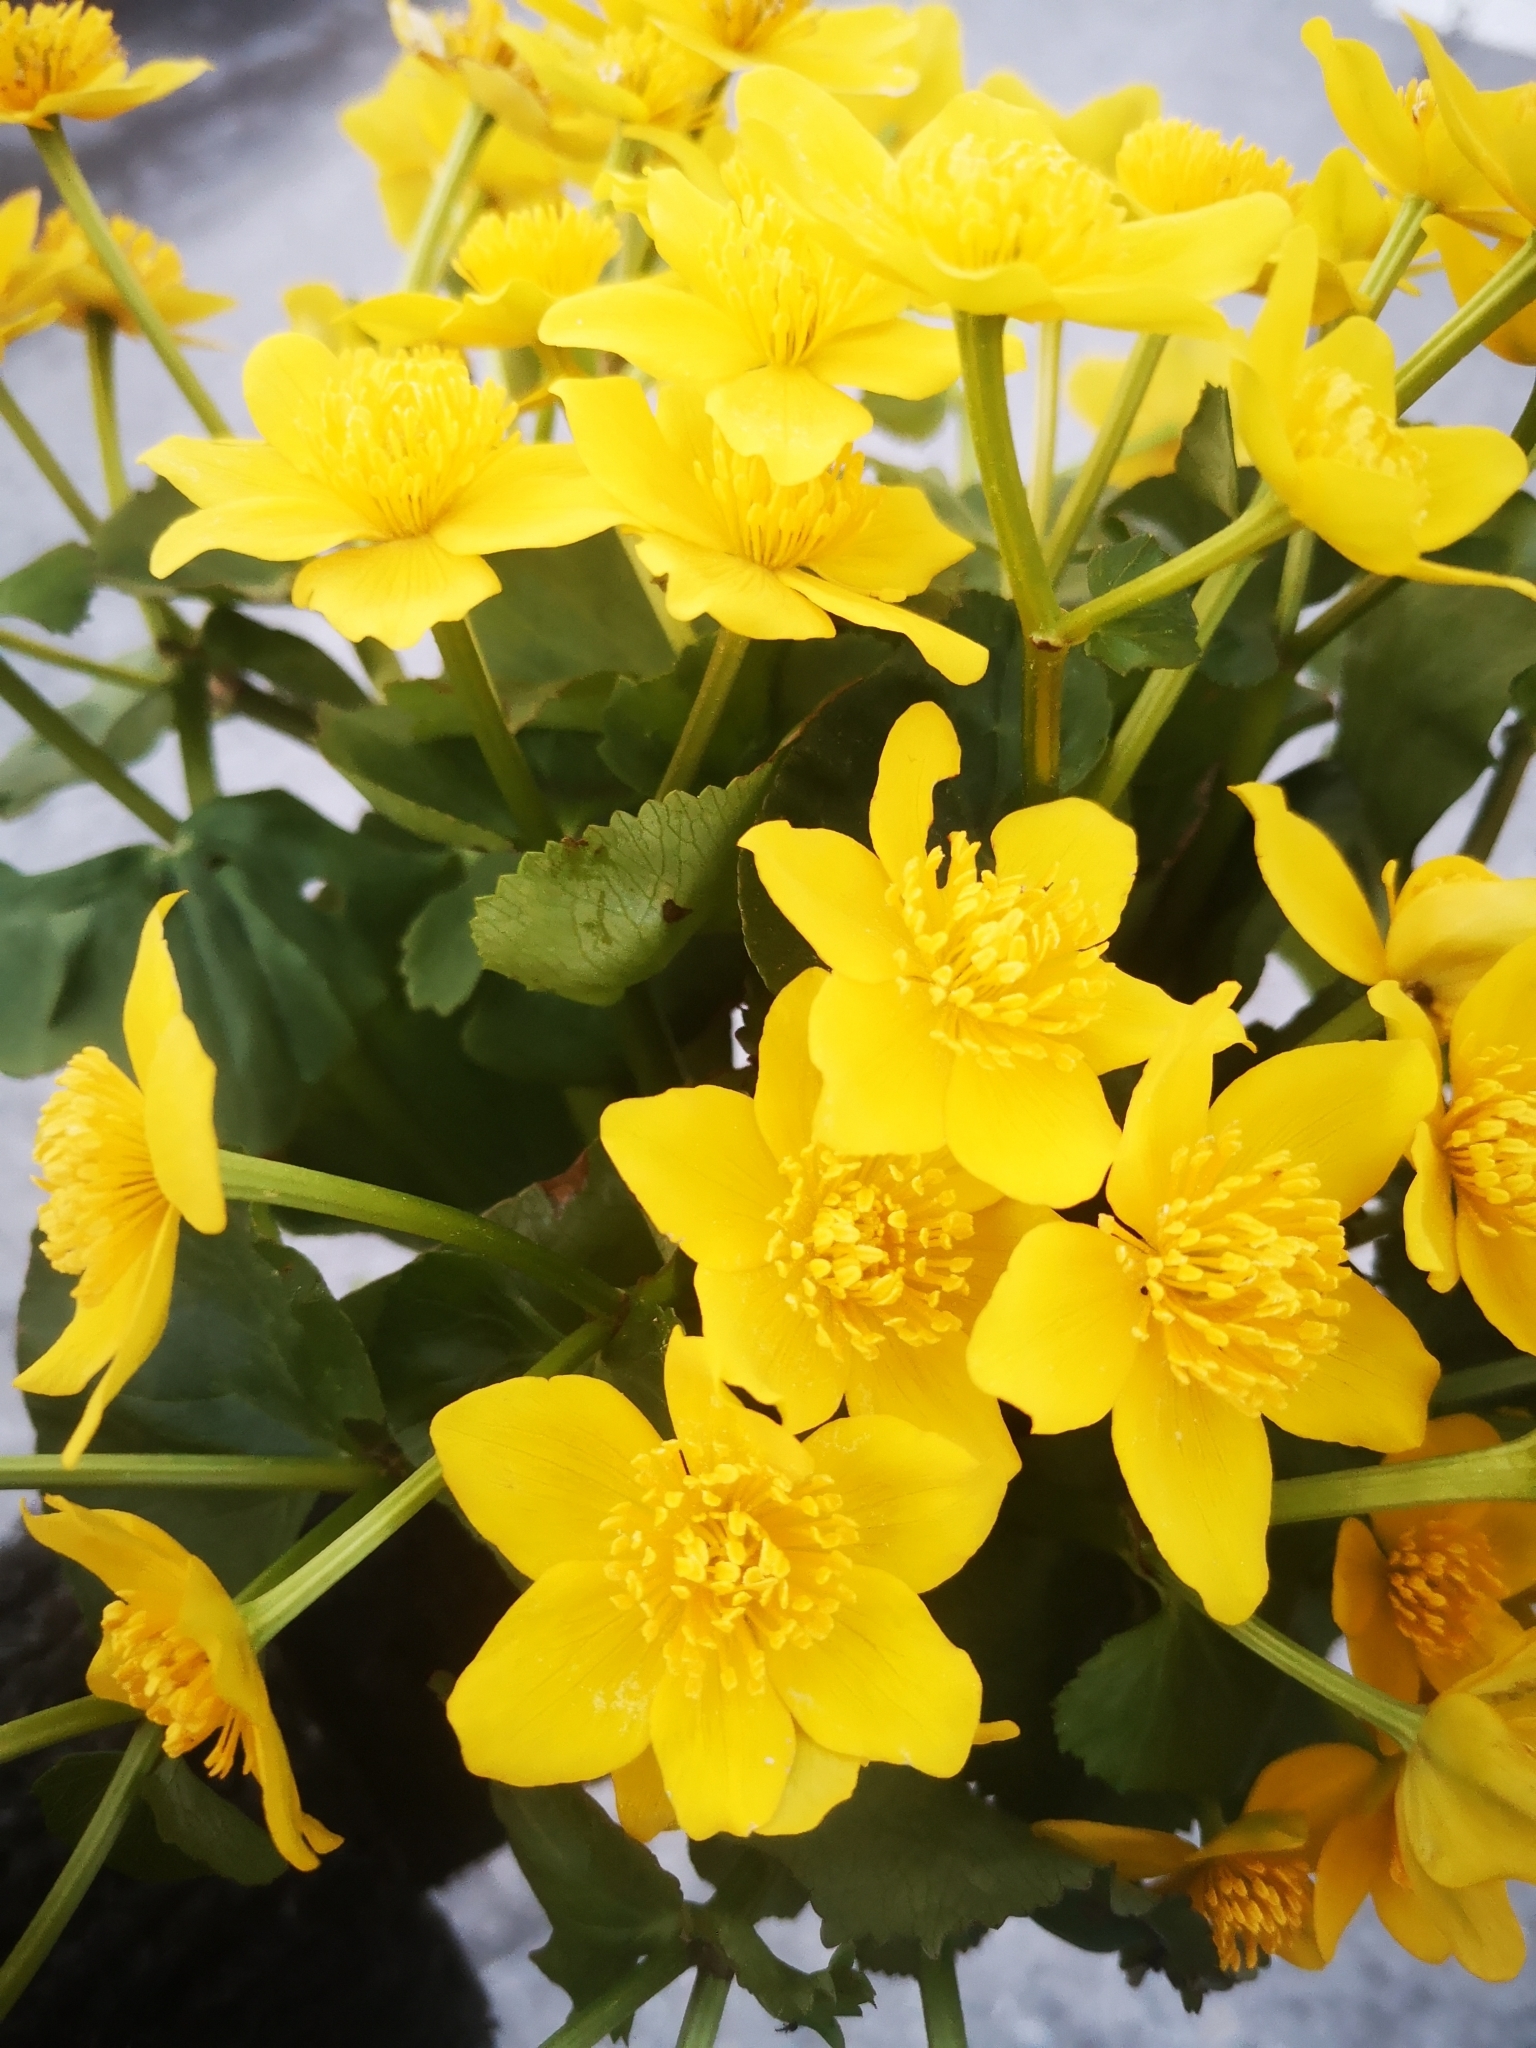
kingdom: Plantae
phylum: Tracheophyta
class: Magnoliopsida
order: Ranunculales
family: Ranunculaceae
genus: Caltha
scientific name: Caltha palustris
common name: Marsh marigold
